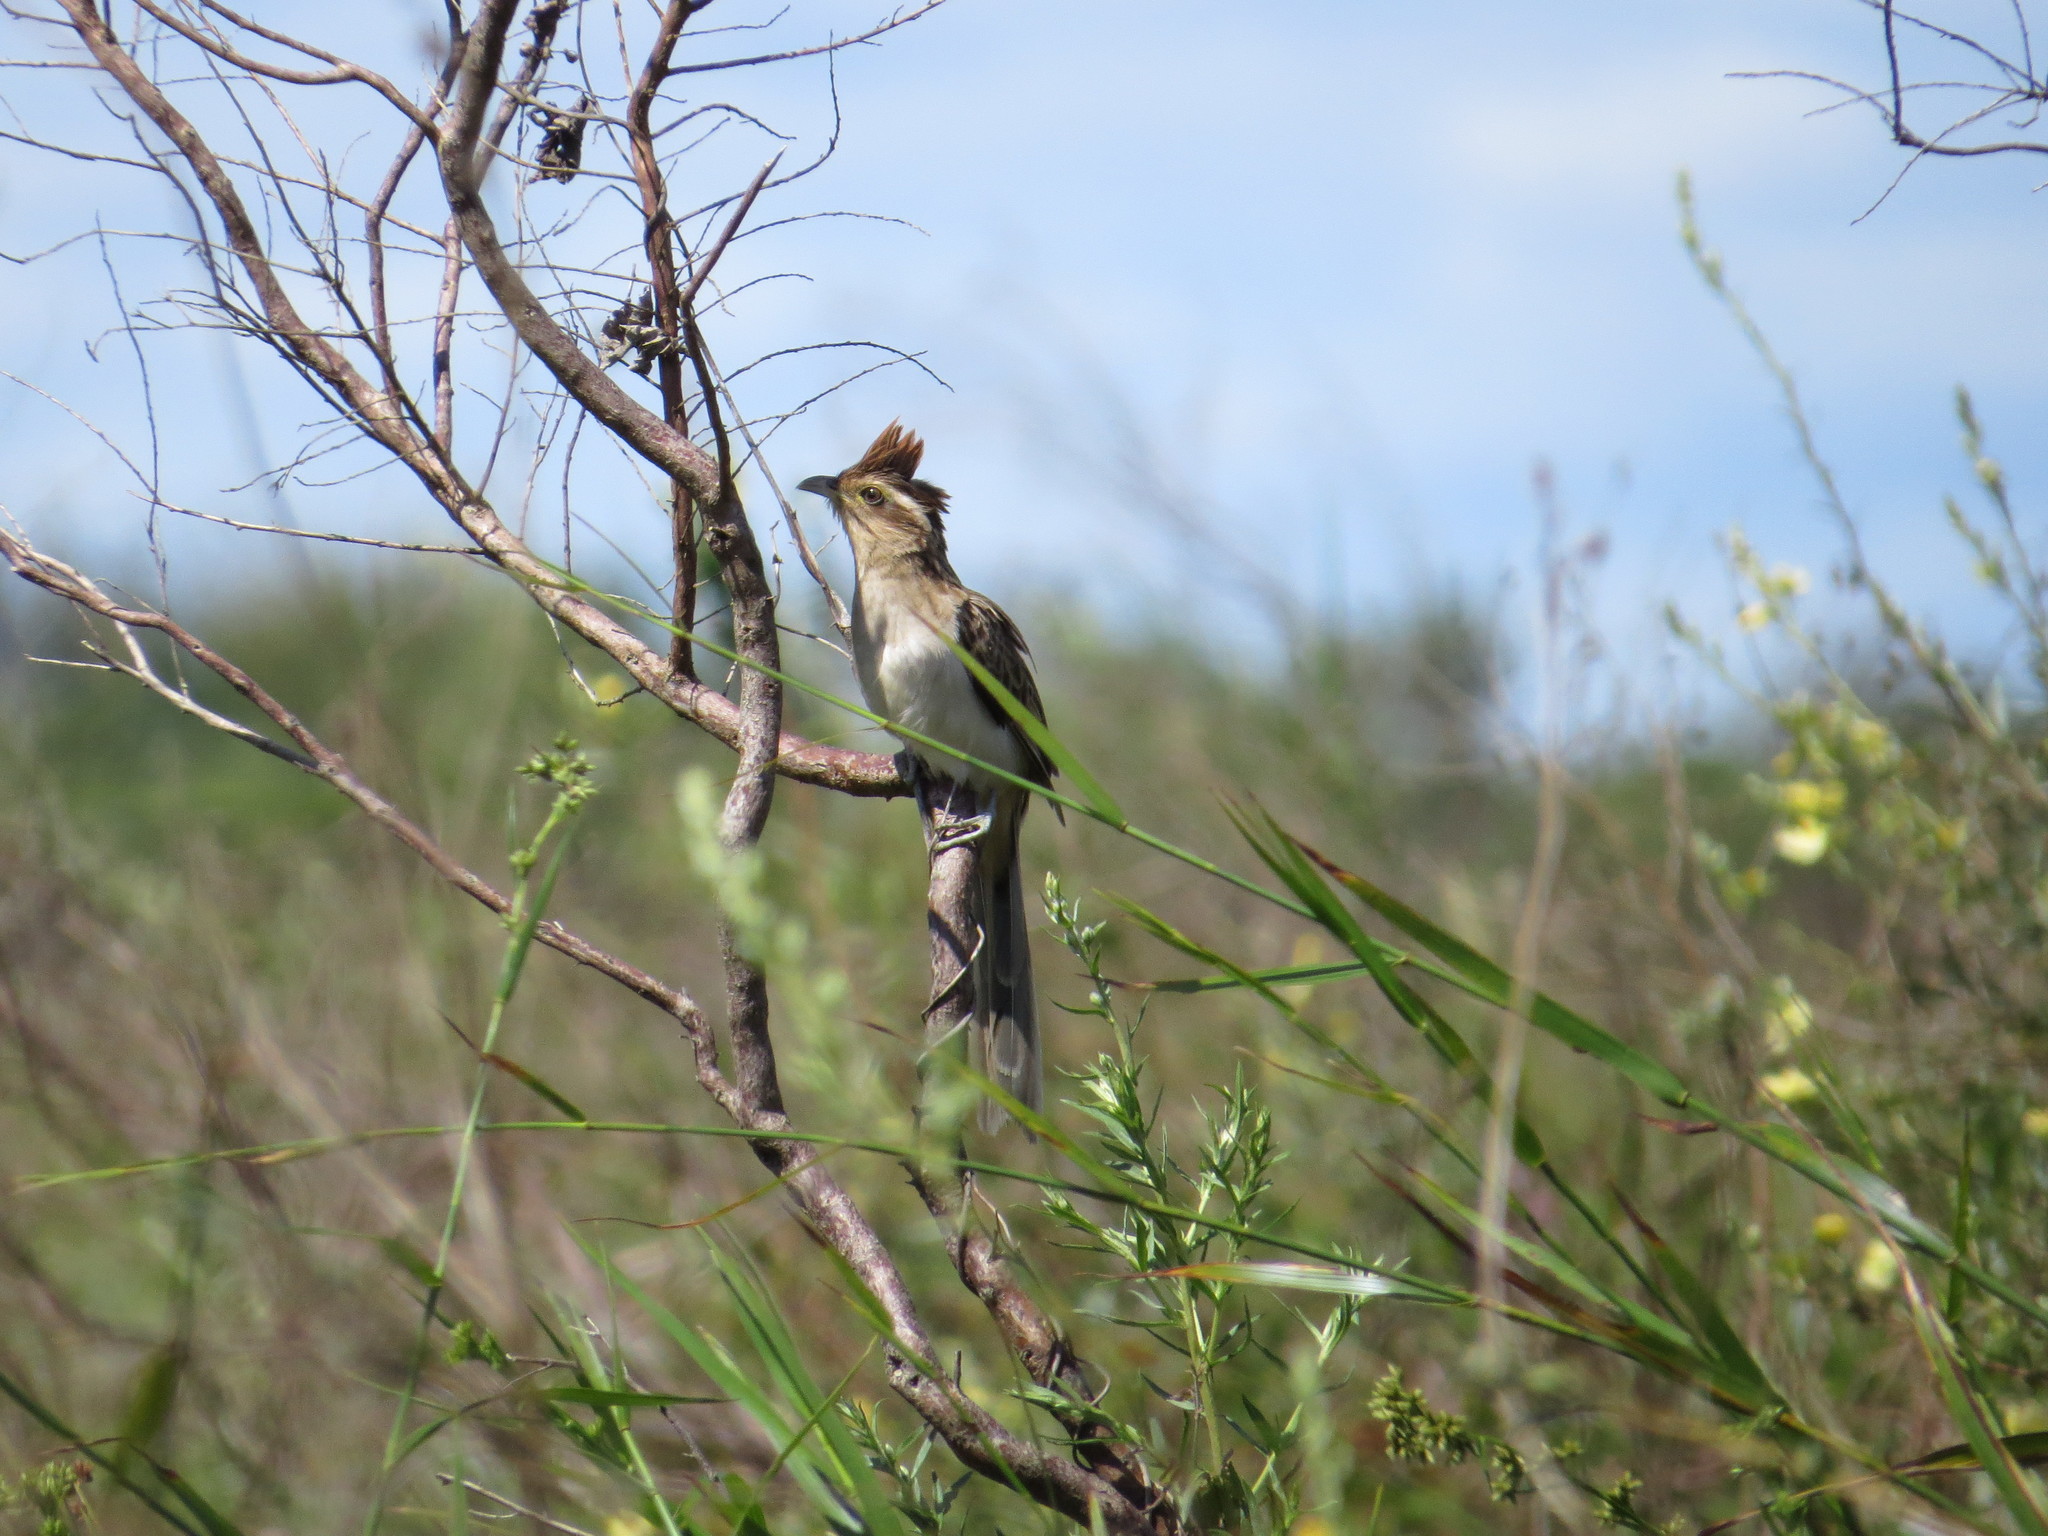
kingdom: Animalia
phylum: Chordata
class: Aves
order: Cuculiformes
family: Cuculidae
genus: Tapera
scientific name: Tapera naevia
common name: Striped cuckoo
